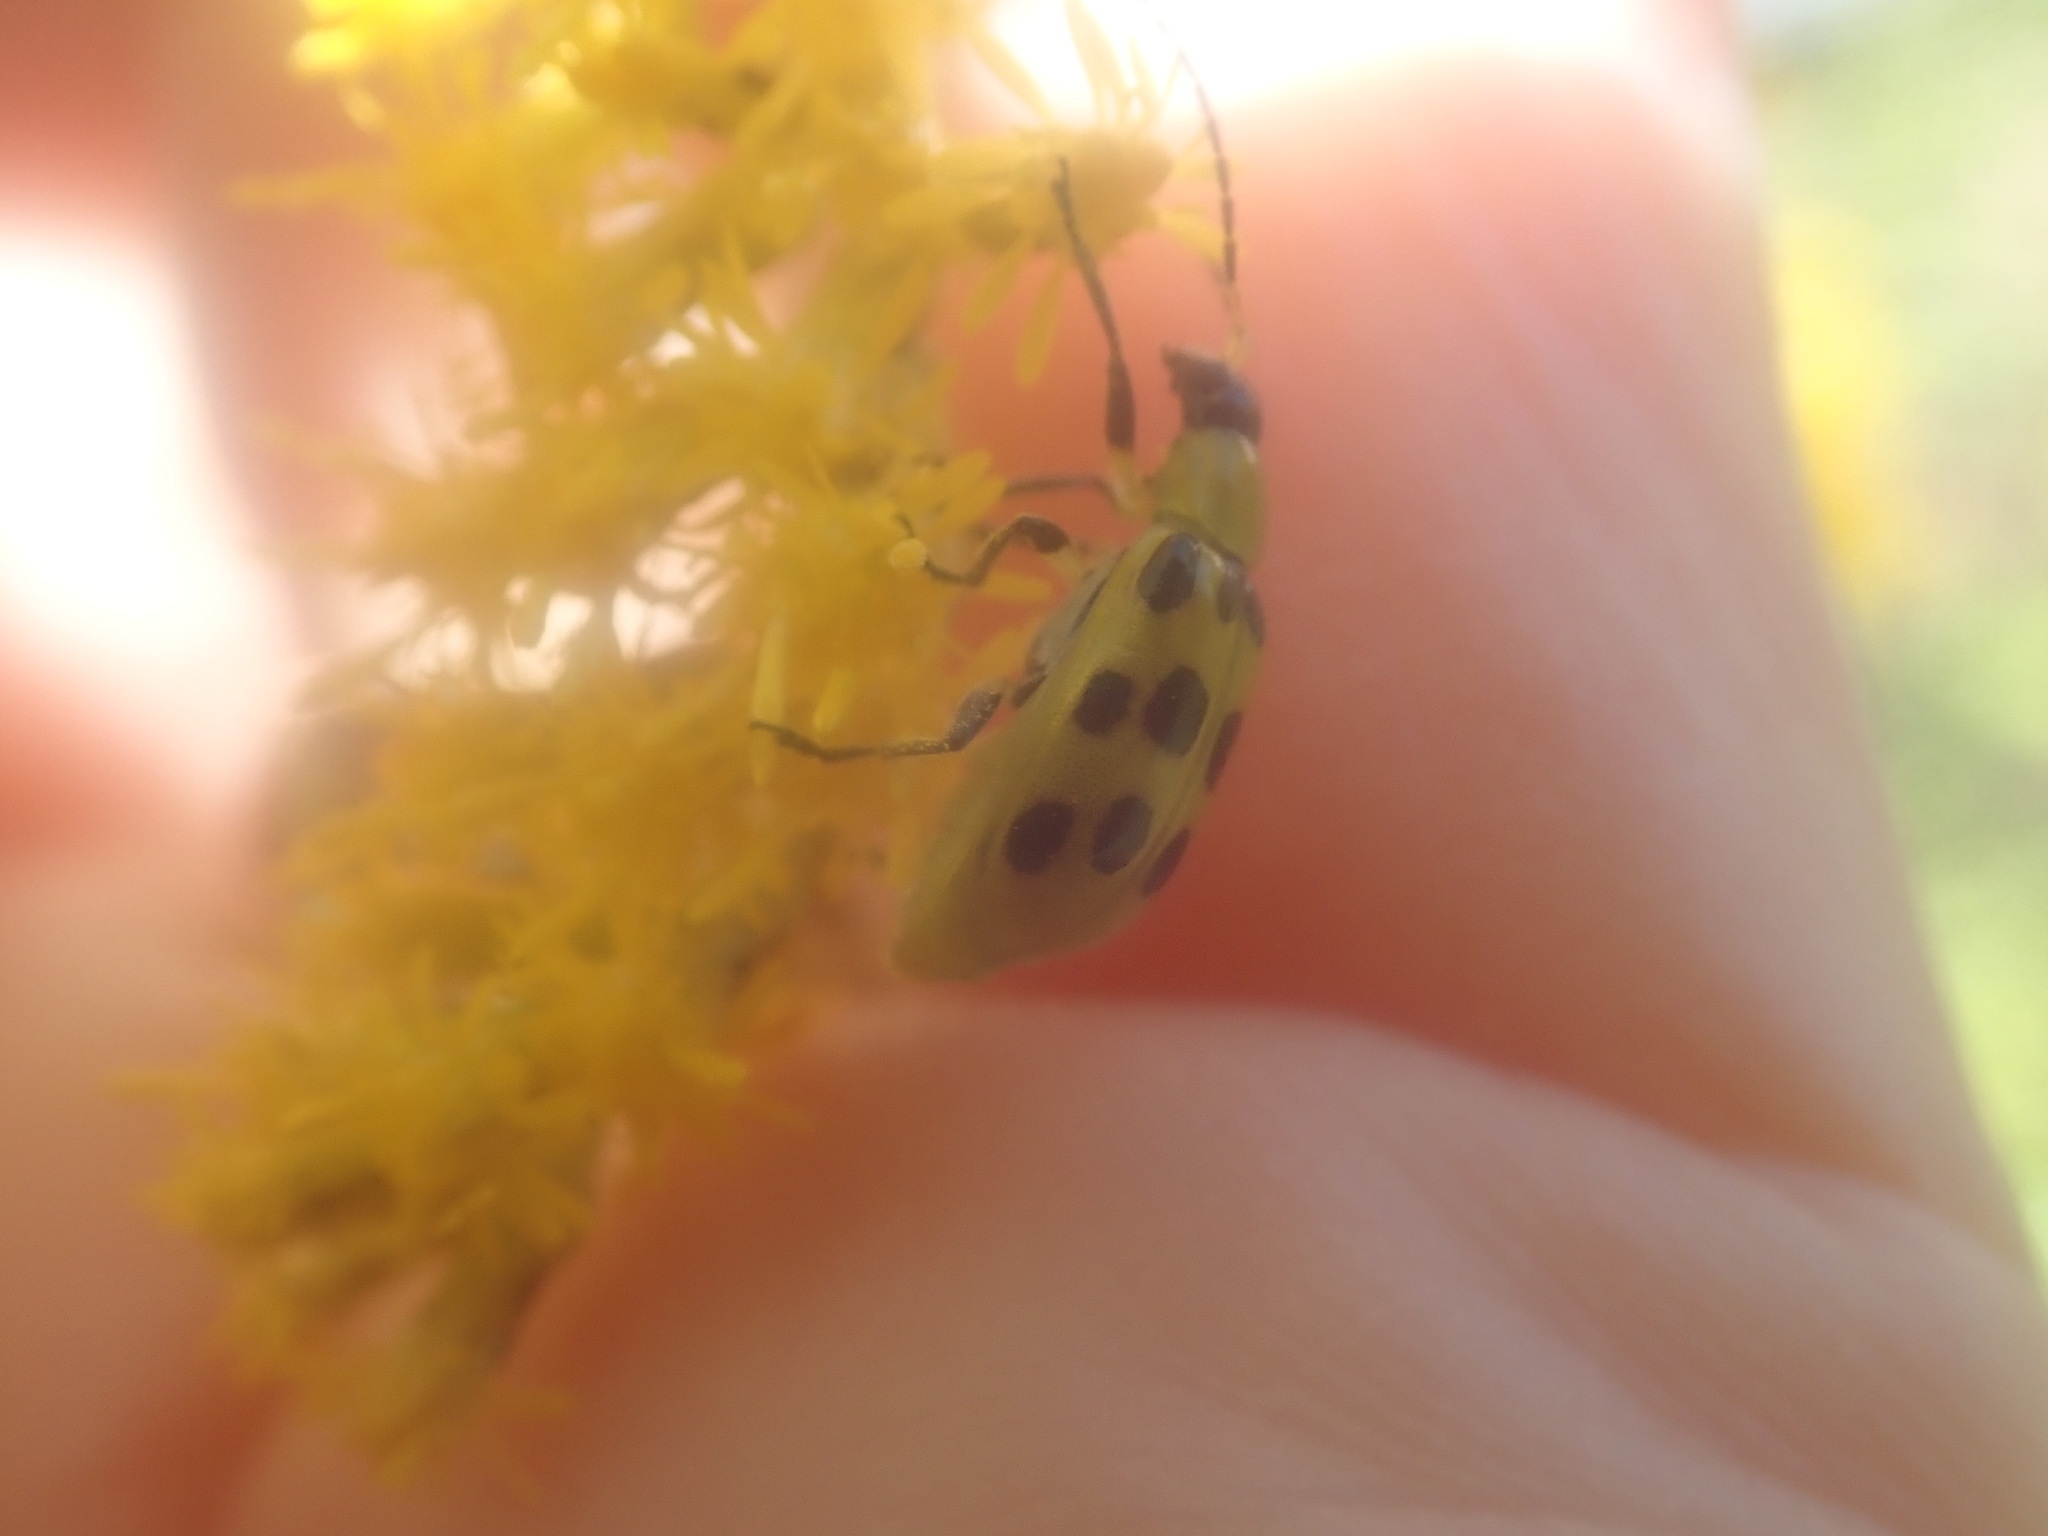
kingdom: Animalia
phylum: Arthropoda
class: Insecta
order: Coleoptera
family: Chrysomelidae
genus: Diabrotica
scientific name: Diabrotica undecimpunctata
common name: Spotted cucumber beetle
